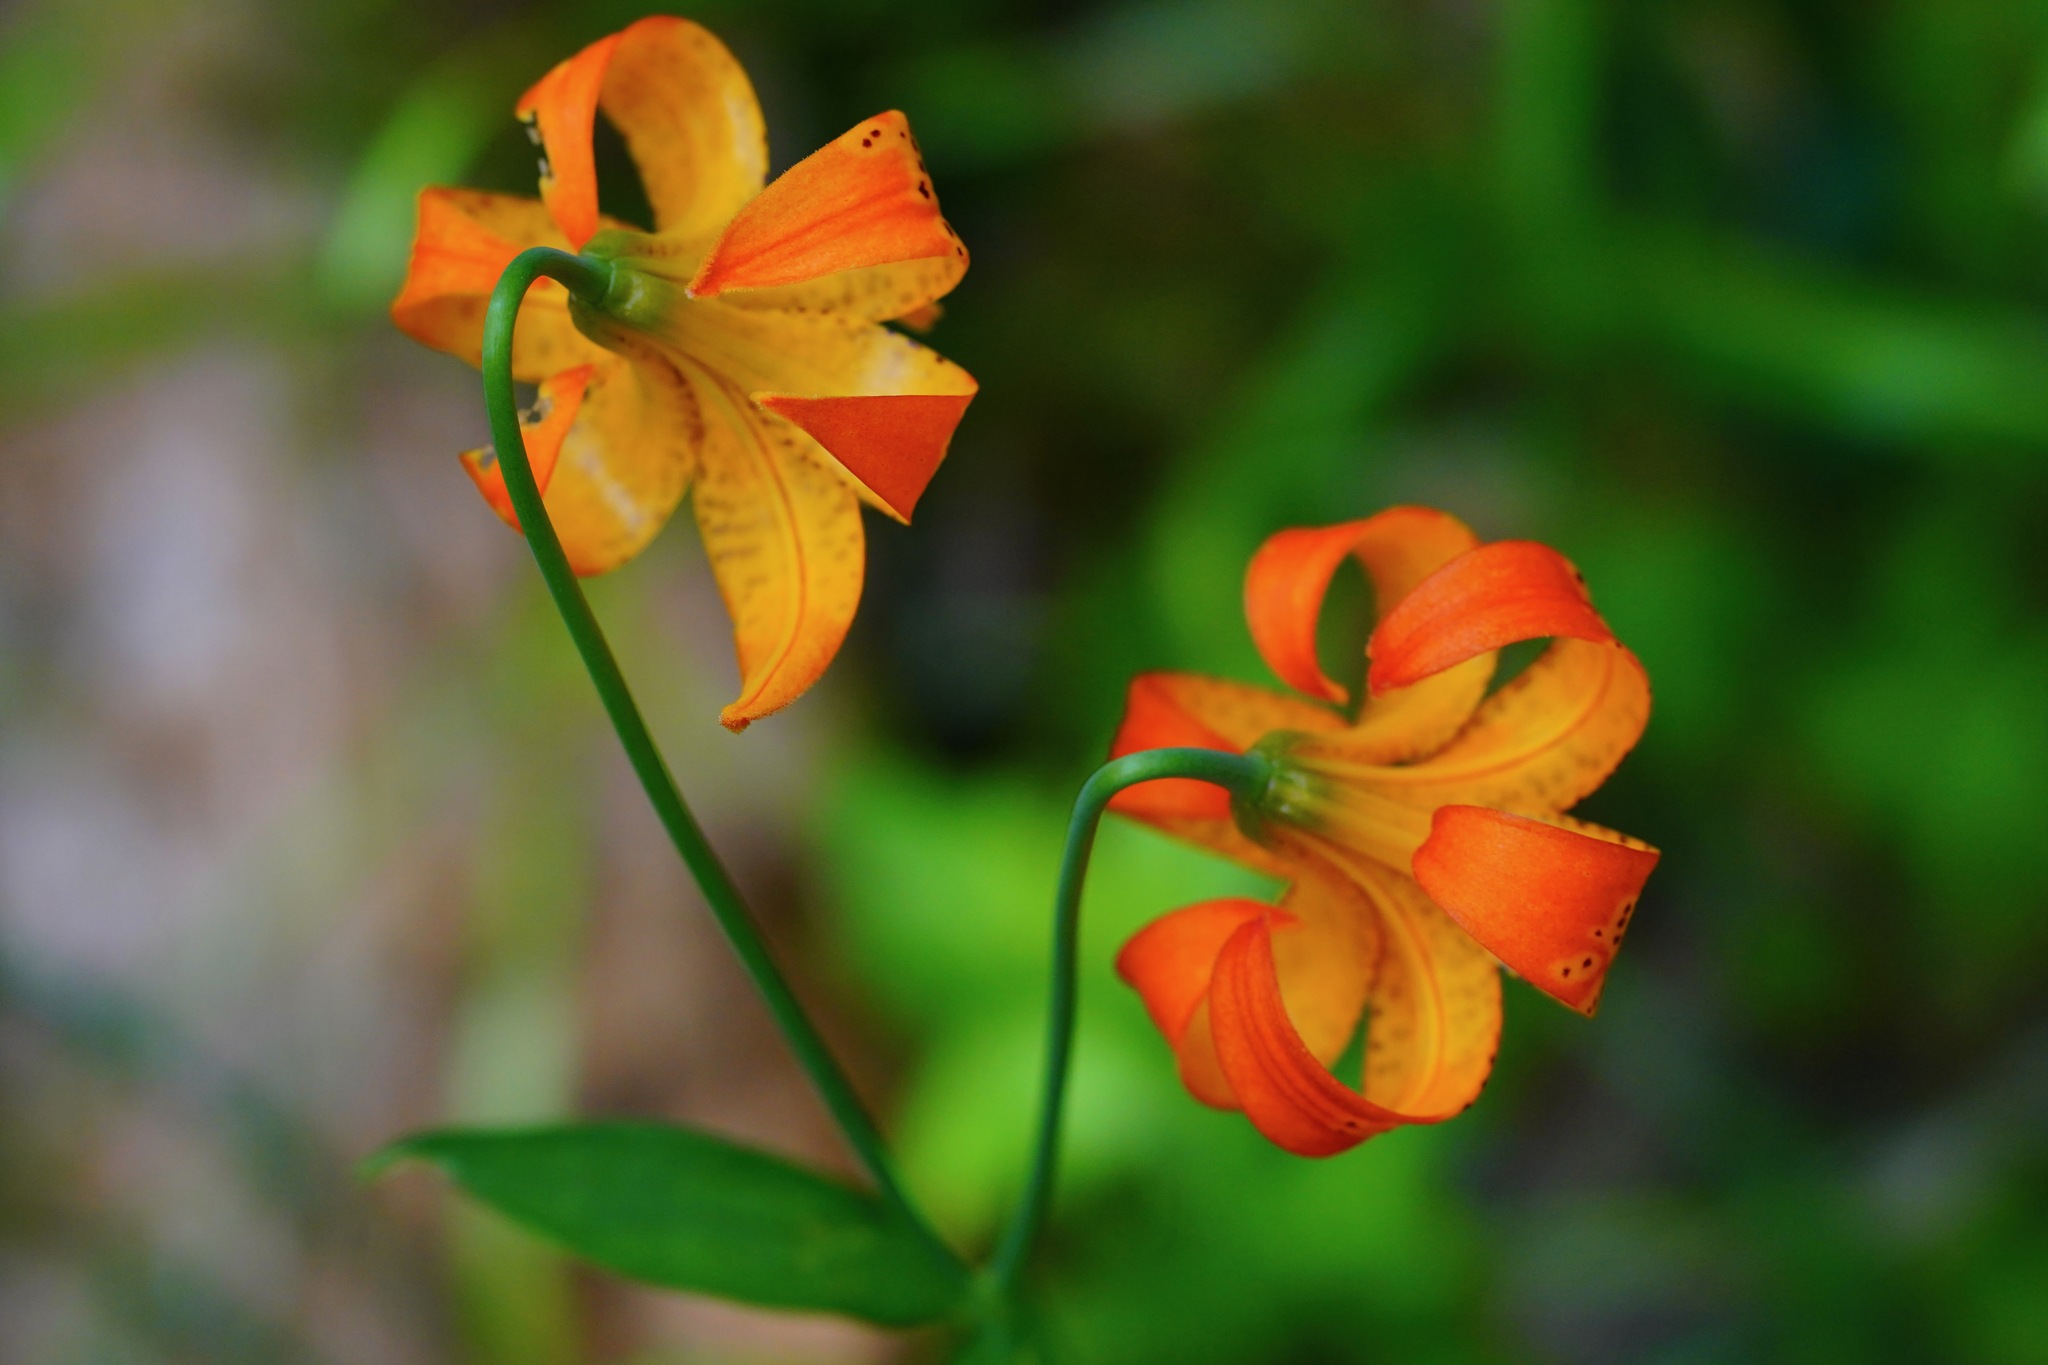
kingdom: Plantae
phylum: Tracheophyta
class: Liliopsida
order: Liliales
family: Liliaceae
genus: Lilium
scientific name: Lilium pardalinum
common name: Panther lily
